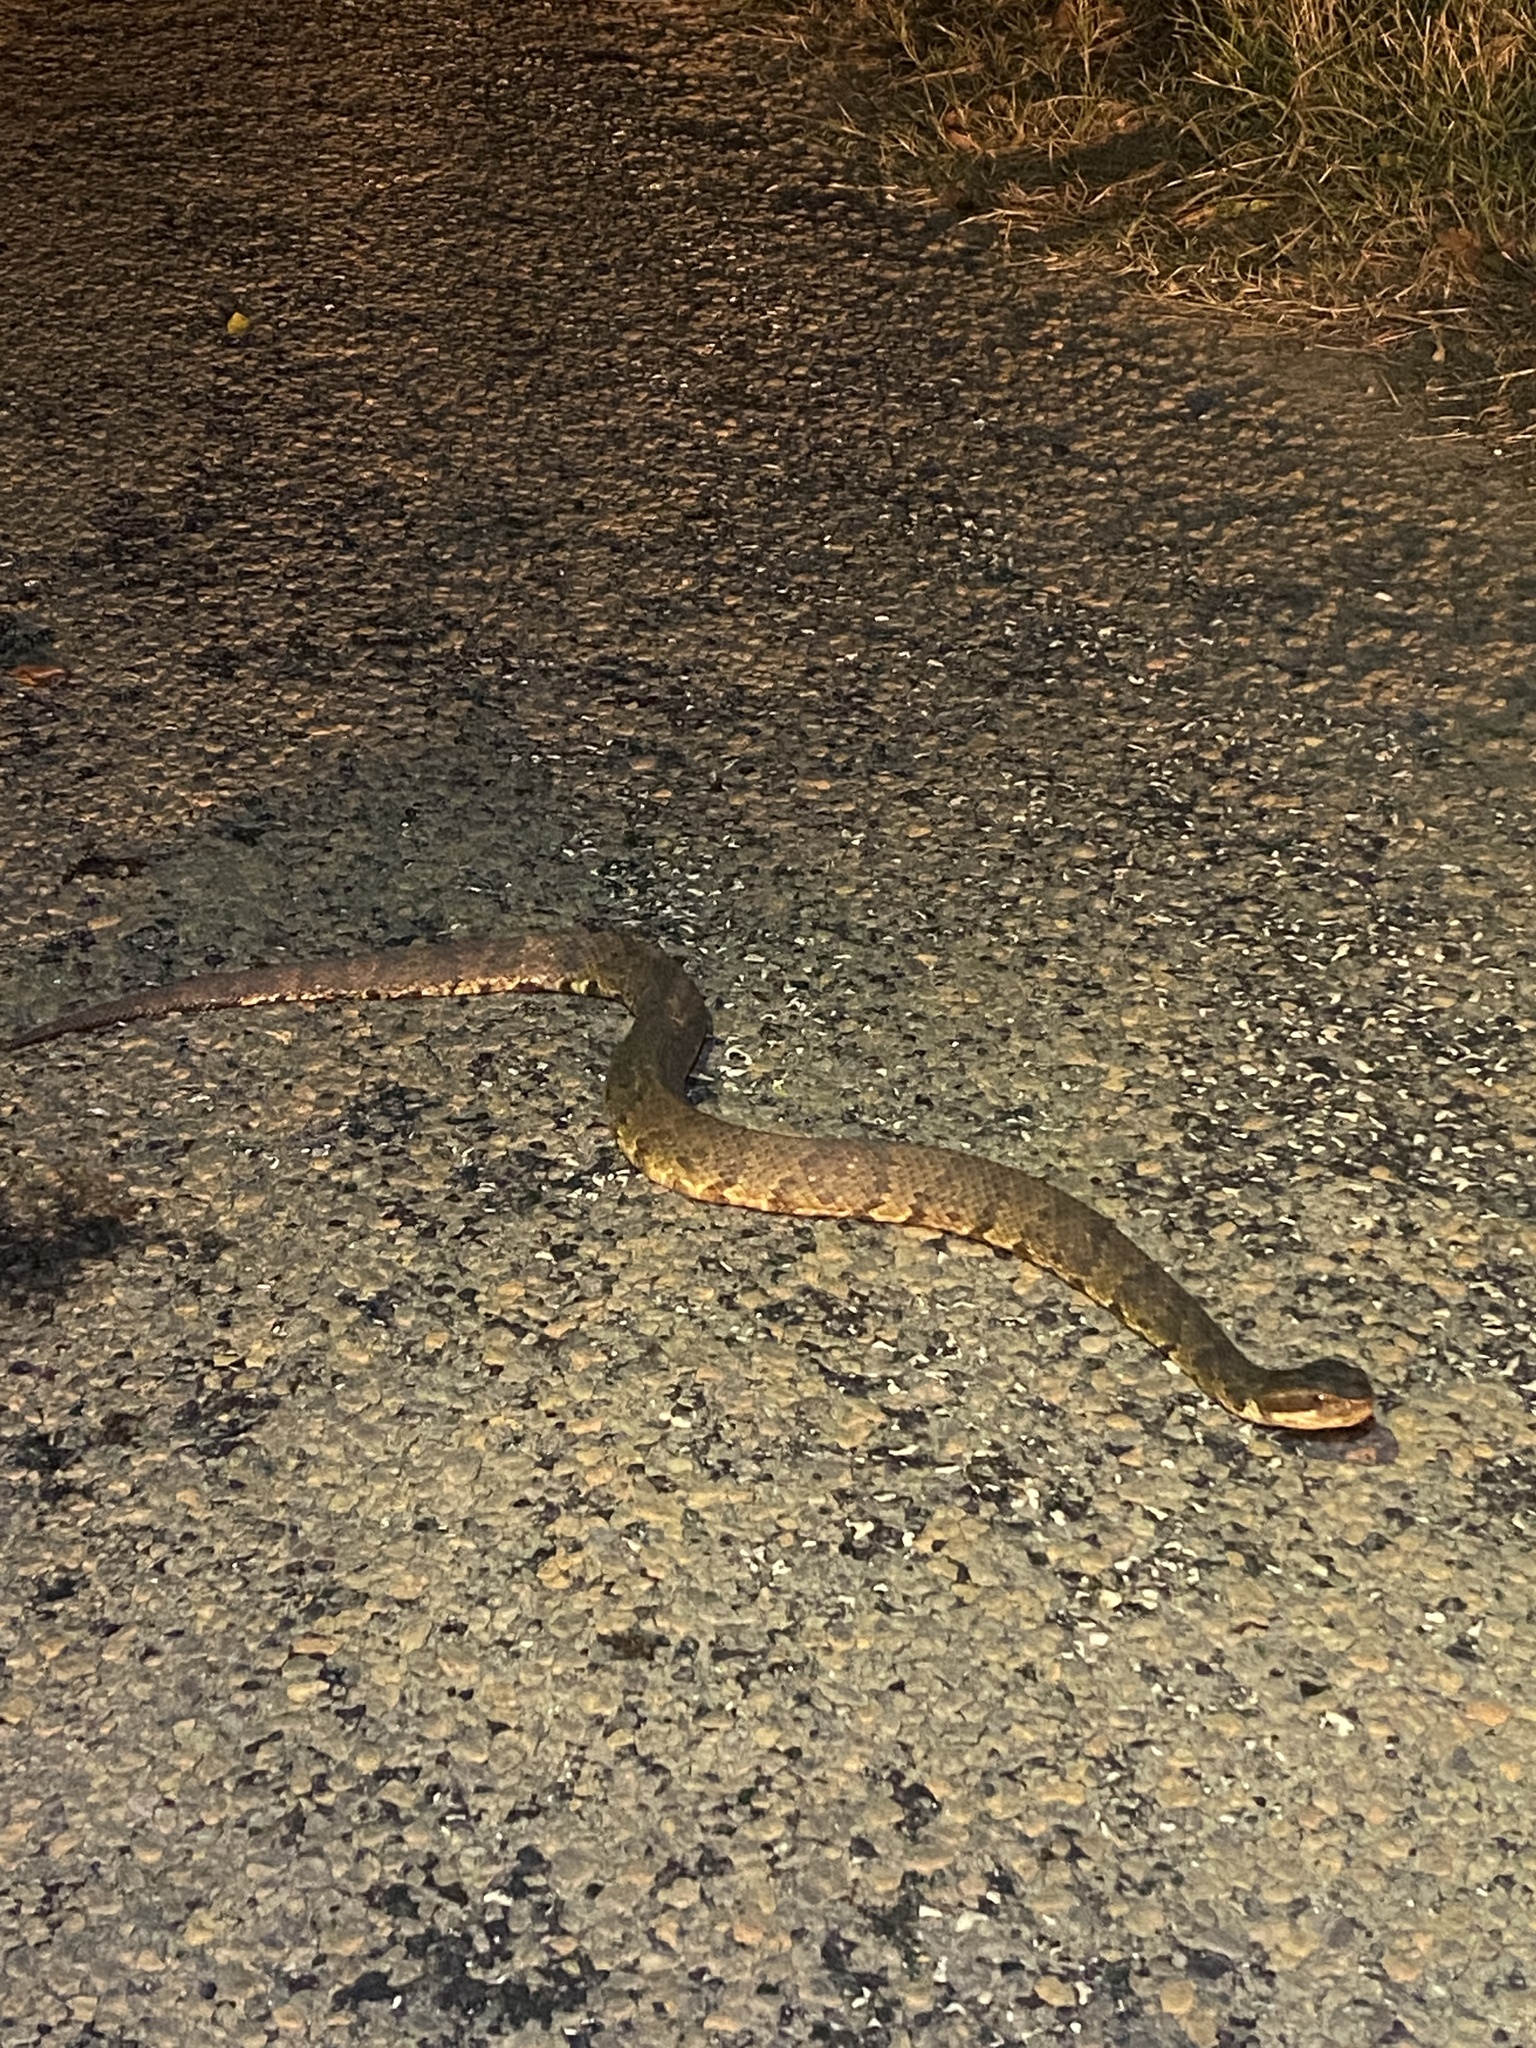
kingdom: Animalia
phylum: Chordata
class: Squamata
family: Viperidae
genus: Agkistrodon
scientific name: Agkistrodon piscivorus
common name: Cottonmouth
